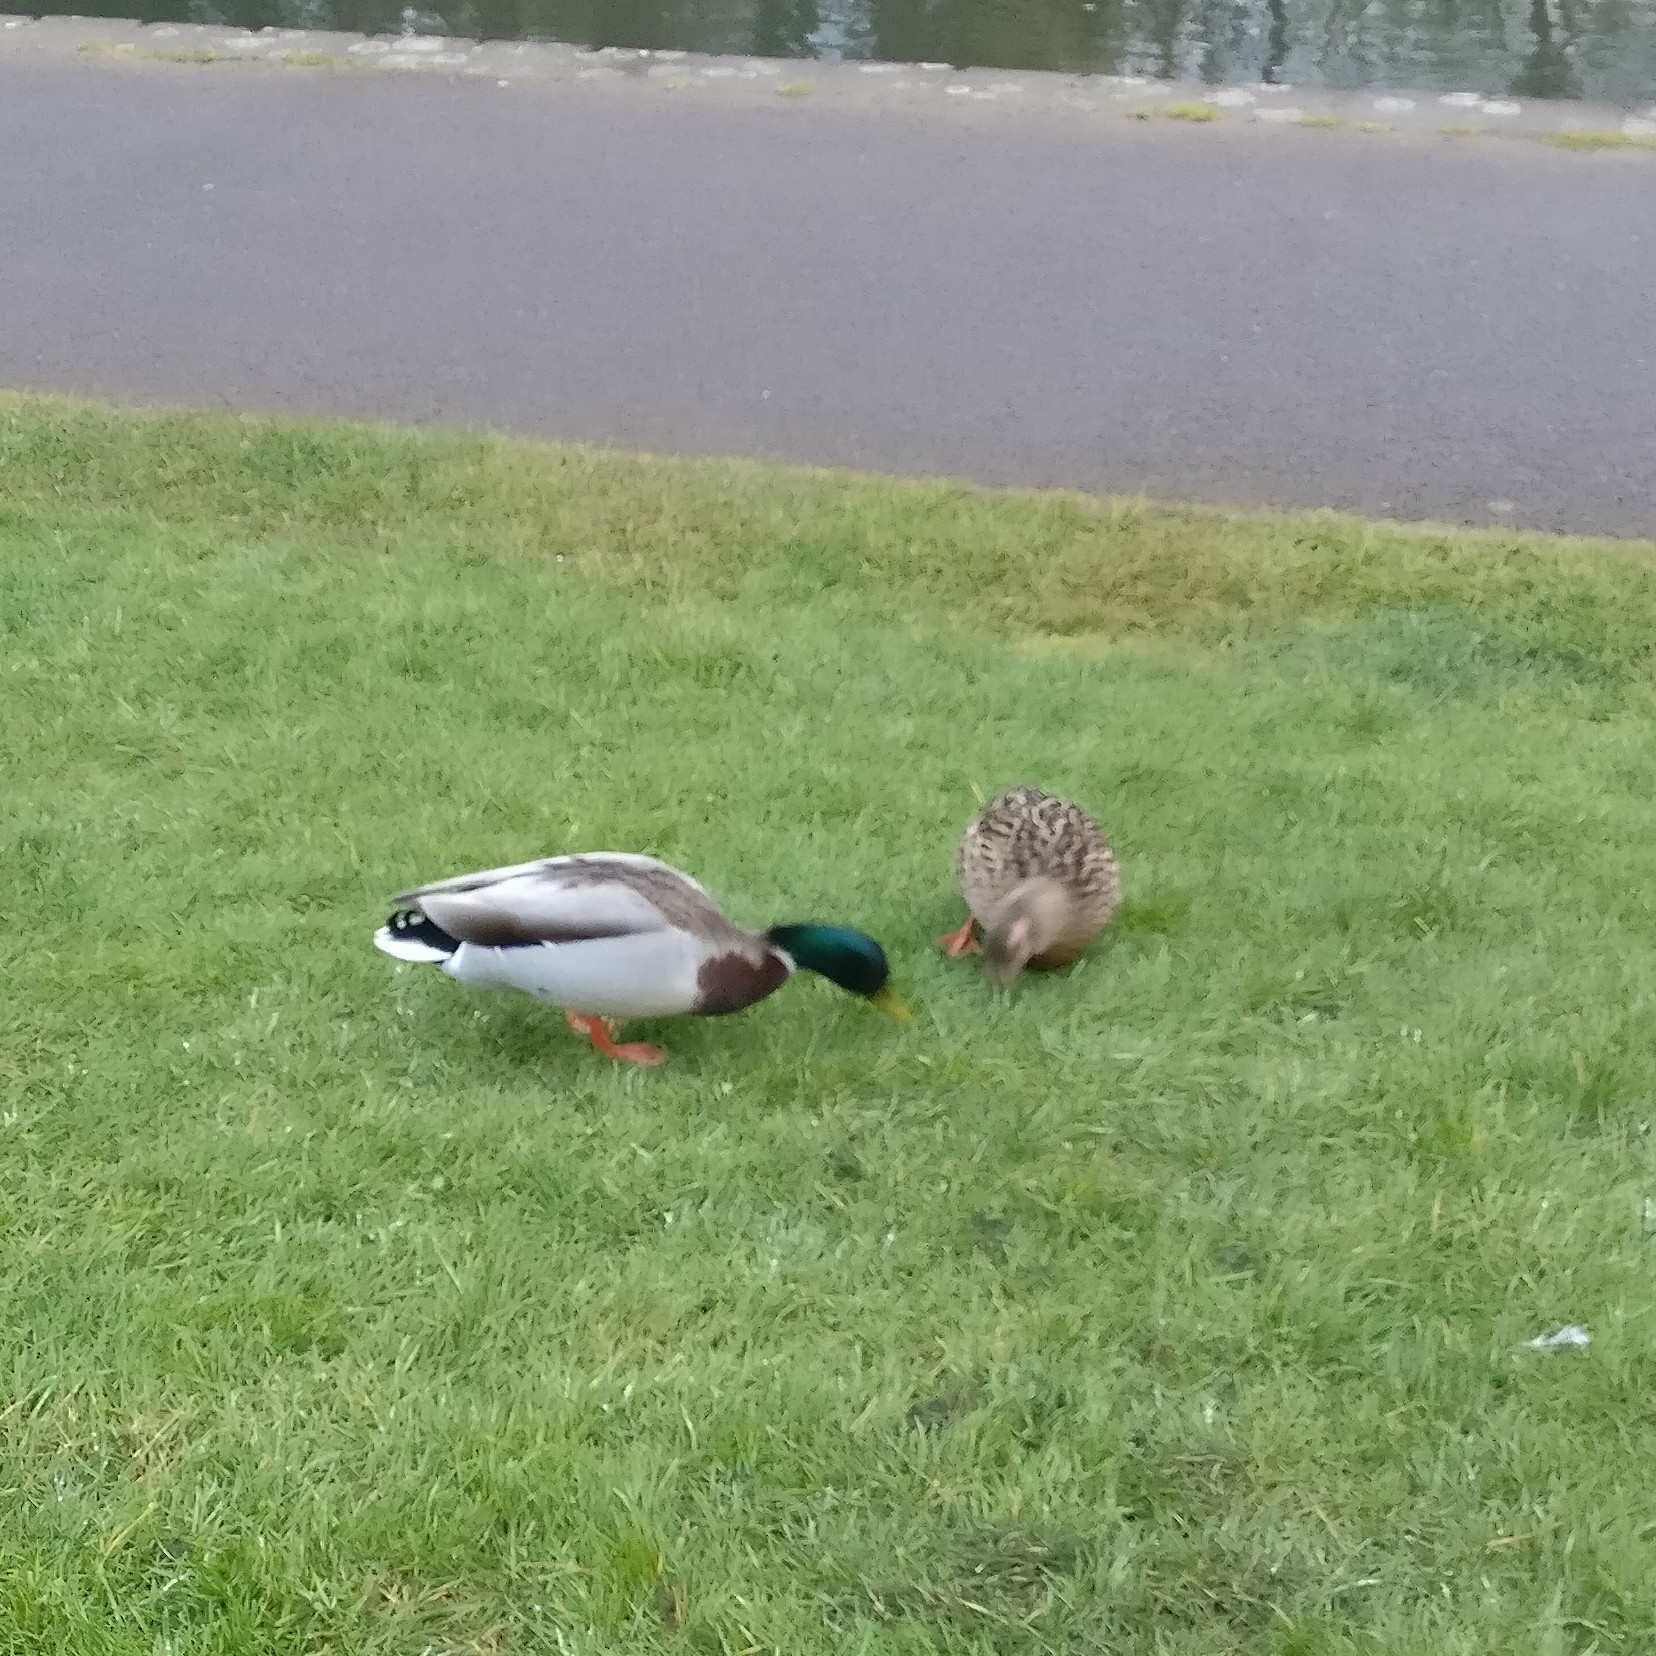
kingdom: Animalia
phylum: Chordata
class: Aves
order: Anseriformes
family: Anatidae
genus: Anas
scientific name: Anas platyrhynchos
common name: Mallard
